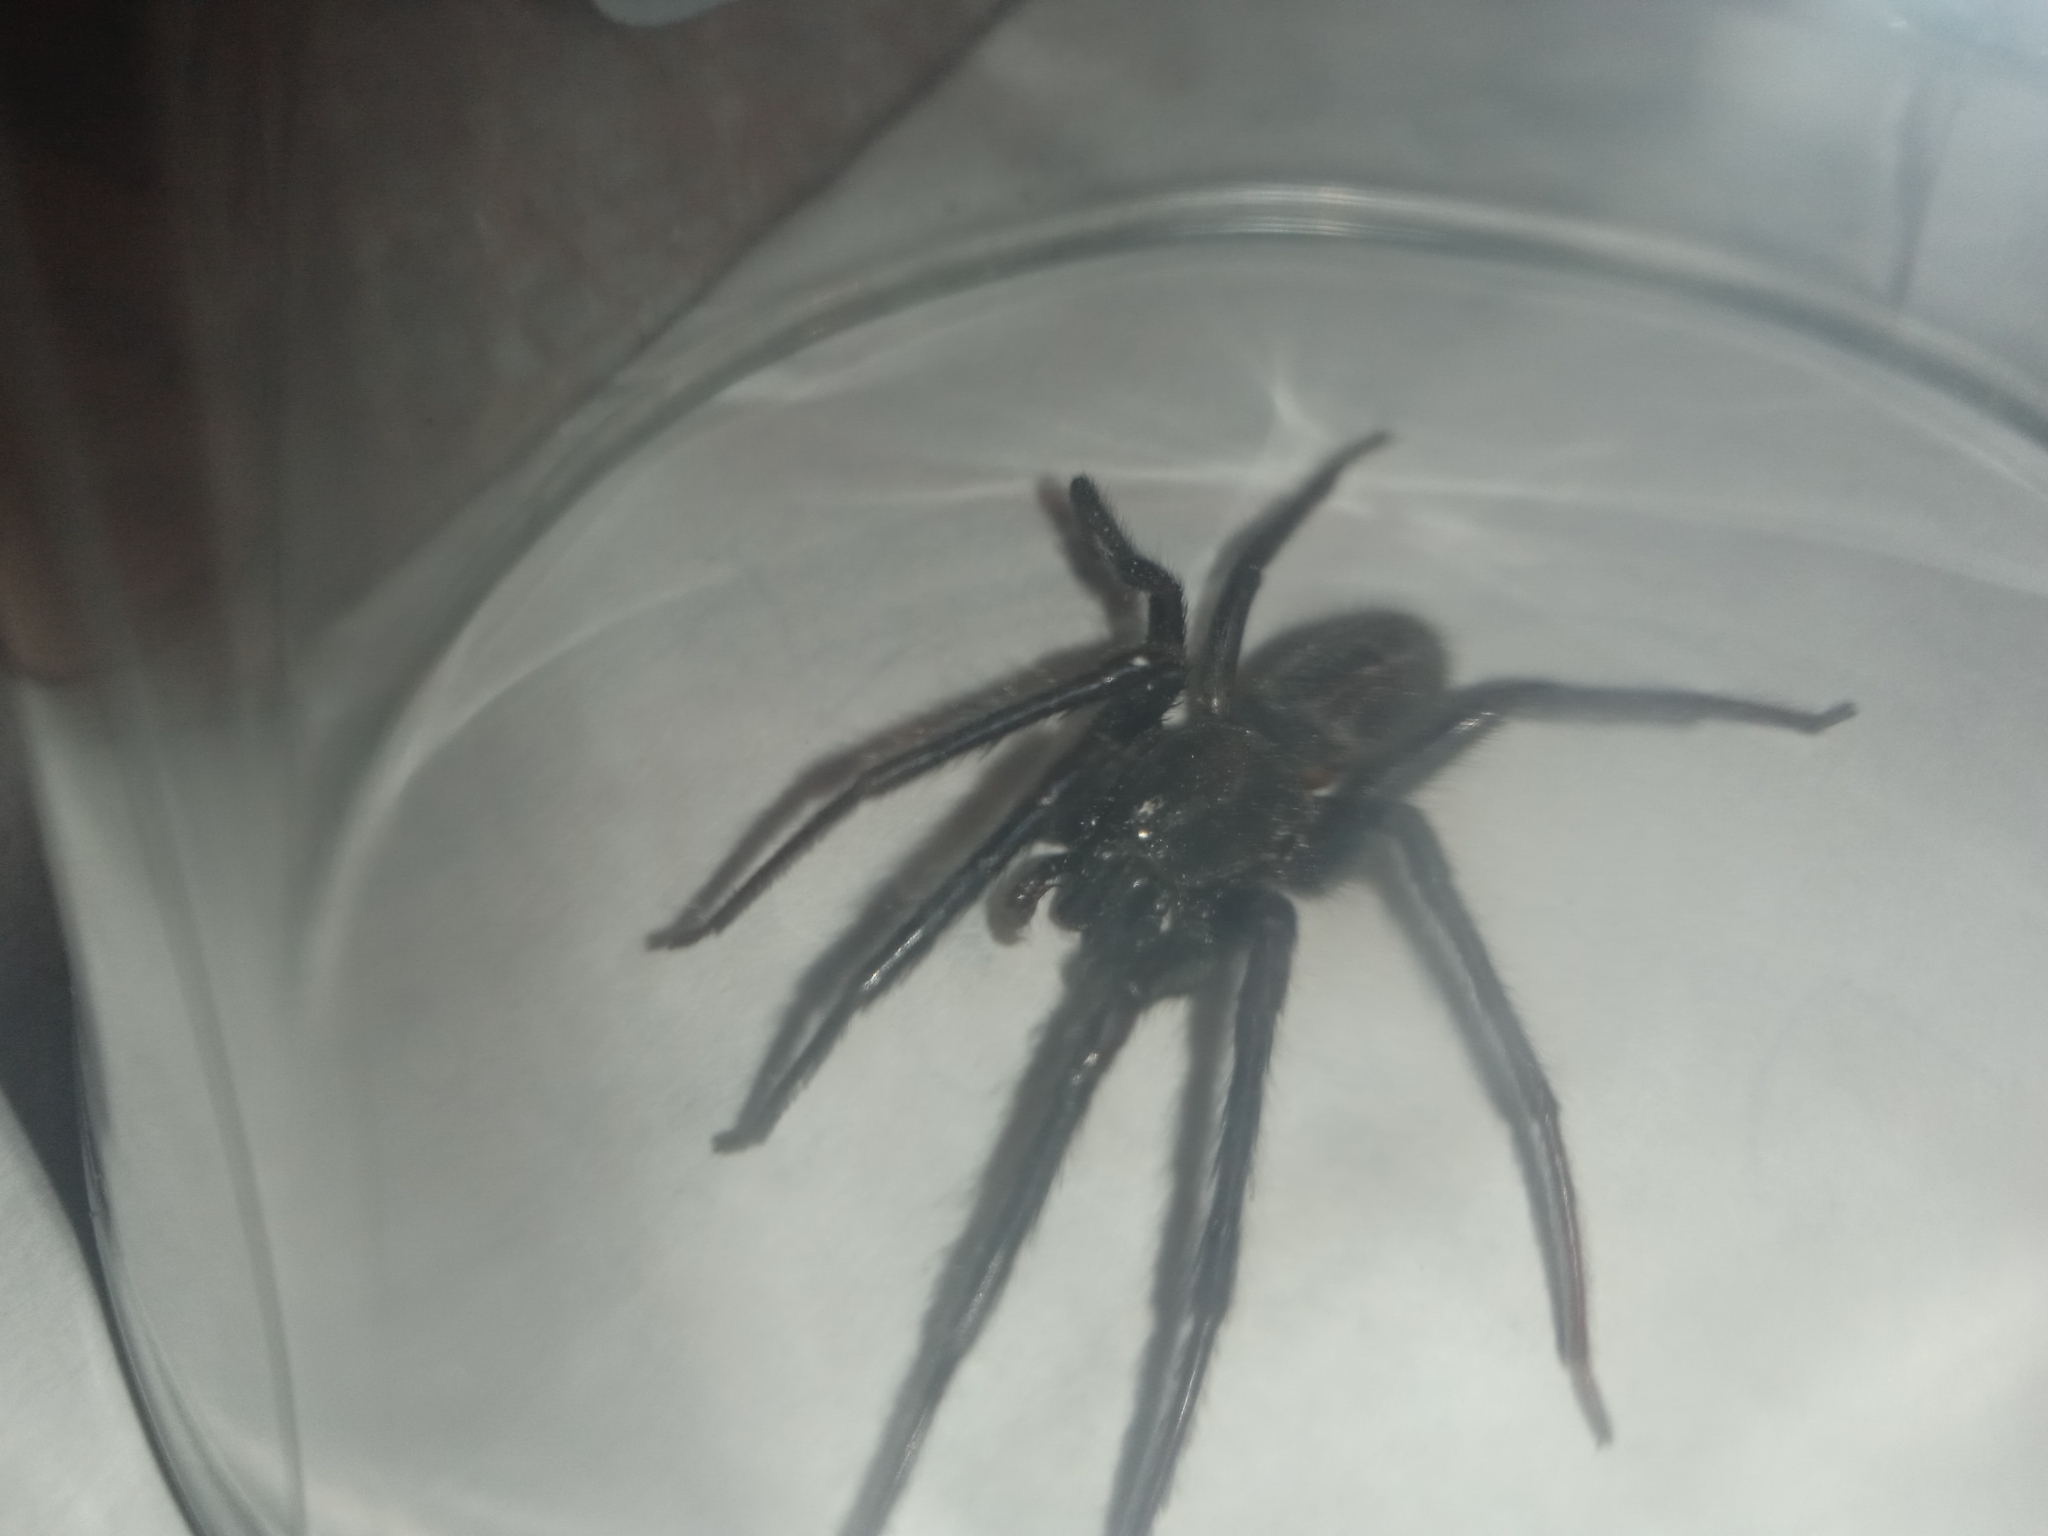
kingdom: Animalia
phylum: Arthropoda
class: Arachnida
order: Araneae
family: Segestriidae
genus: Segestria
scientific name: Segestria florentina
